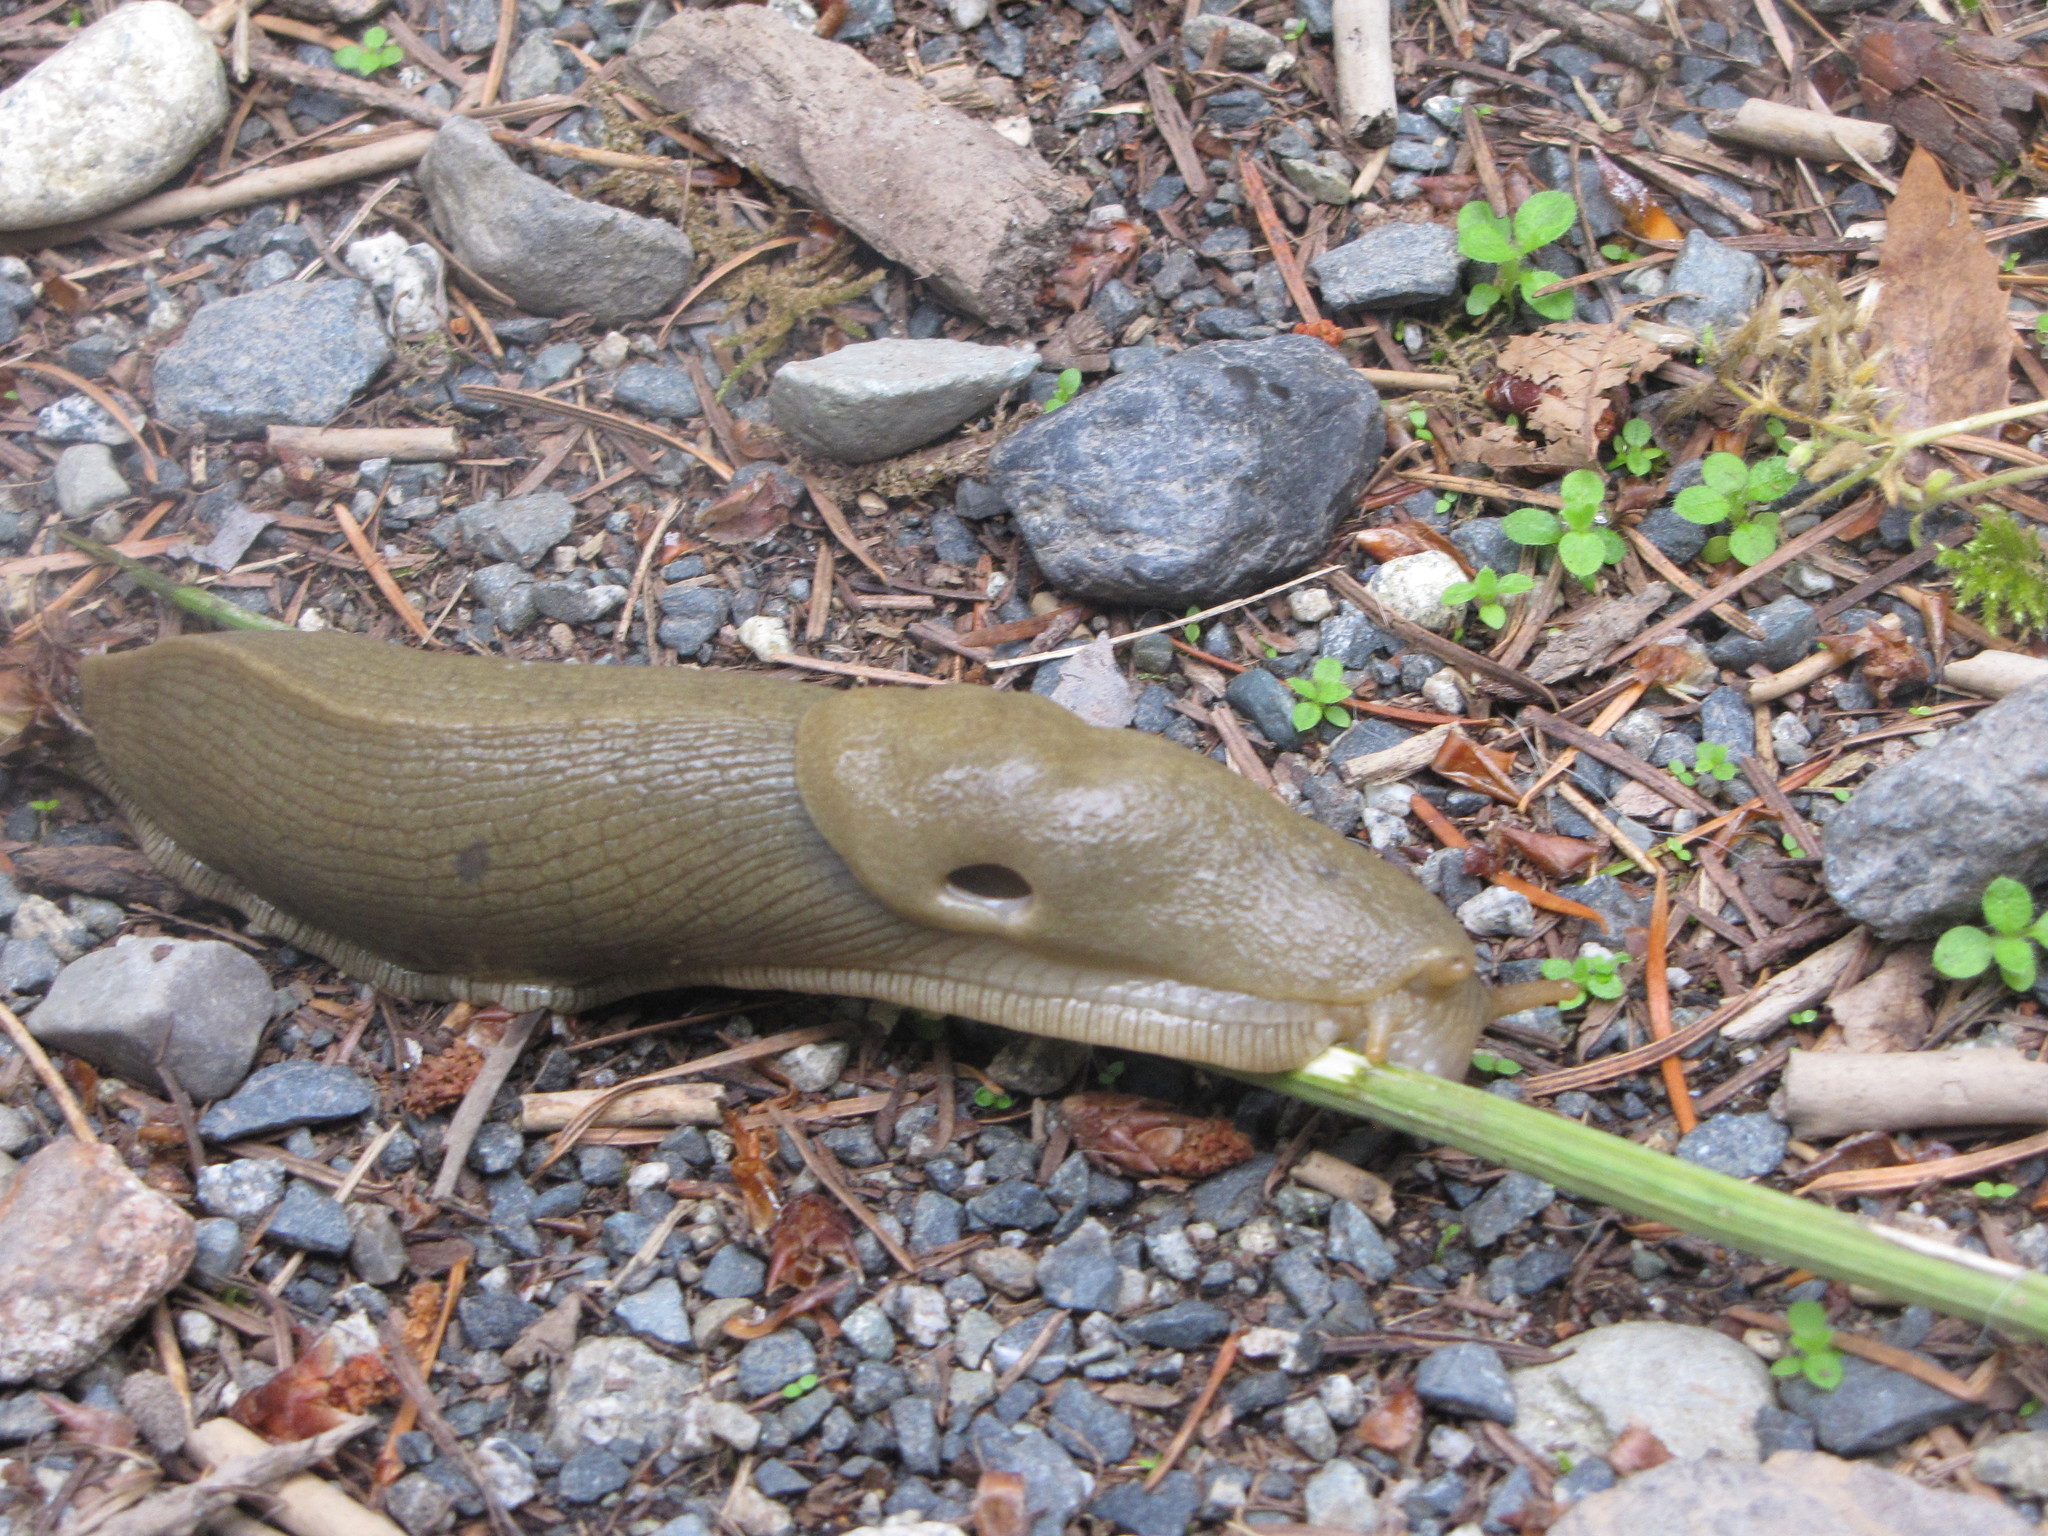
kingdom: Animalia
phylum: Mollusca
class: Gastropoda
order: Stylommatophora
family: Ariolimacidae
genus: Ariolimax
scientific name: Ariolimax columbianus
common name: Pacific banana slug
